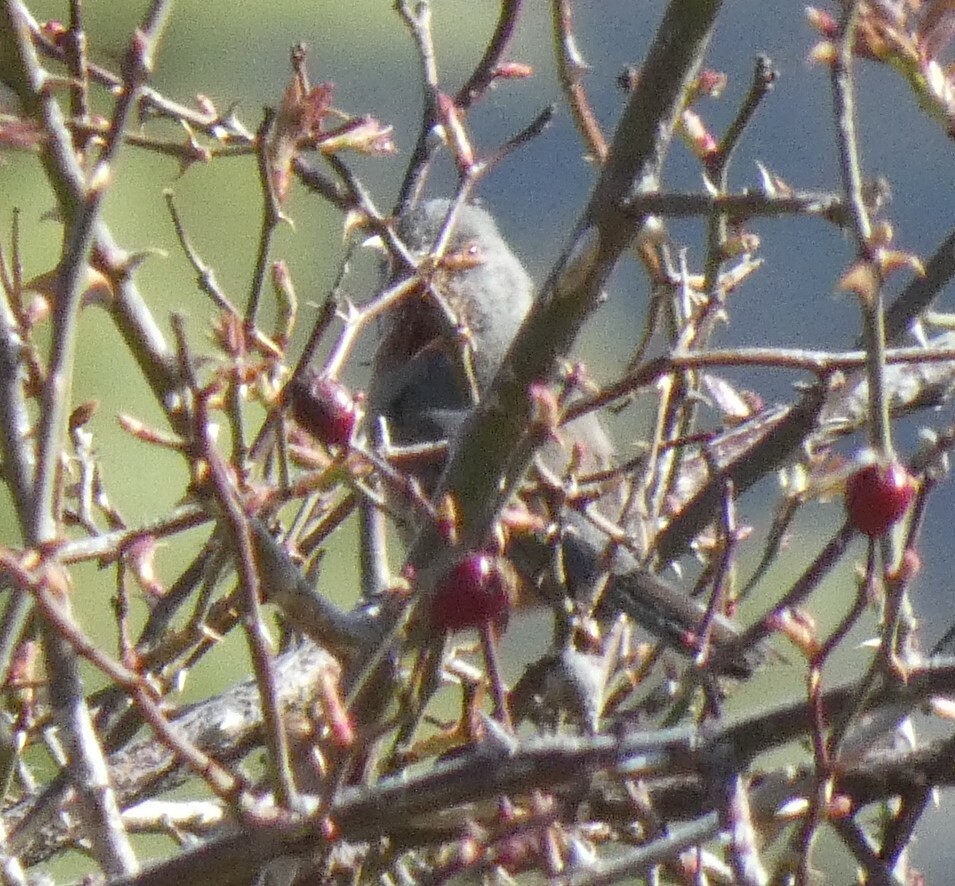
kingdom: Animalia
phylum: Chordata
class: Aves
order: Passeriformes
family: Sylviidae
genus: Sylvia
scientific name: Sylvia undata
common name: Dartford warbler
